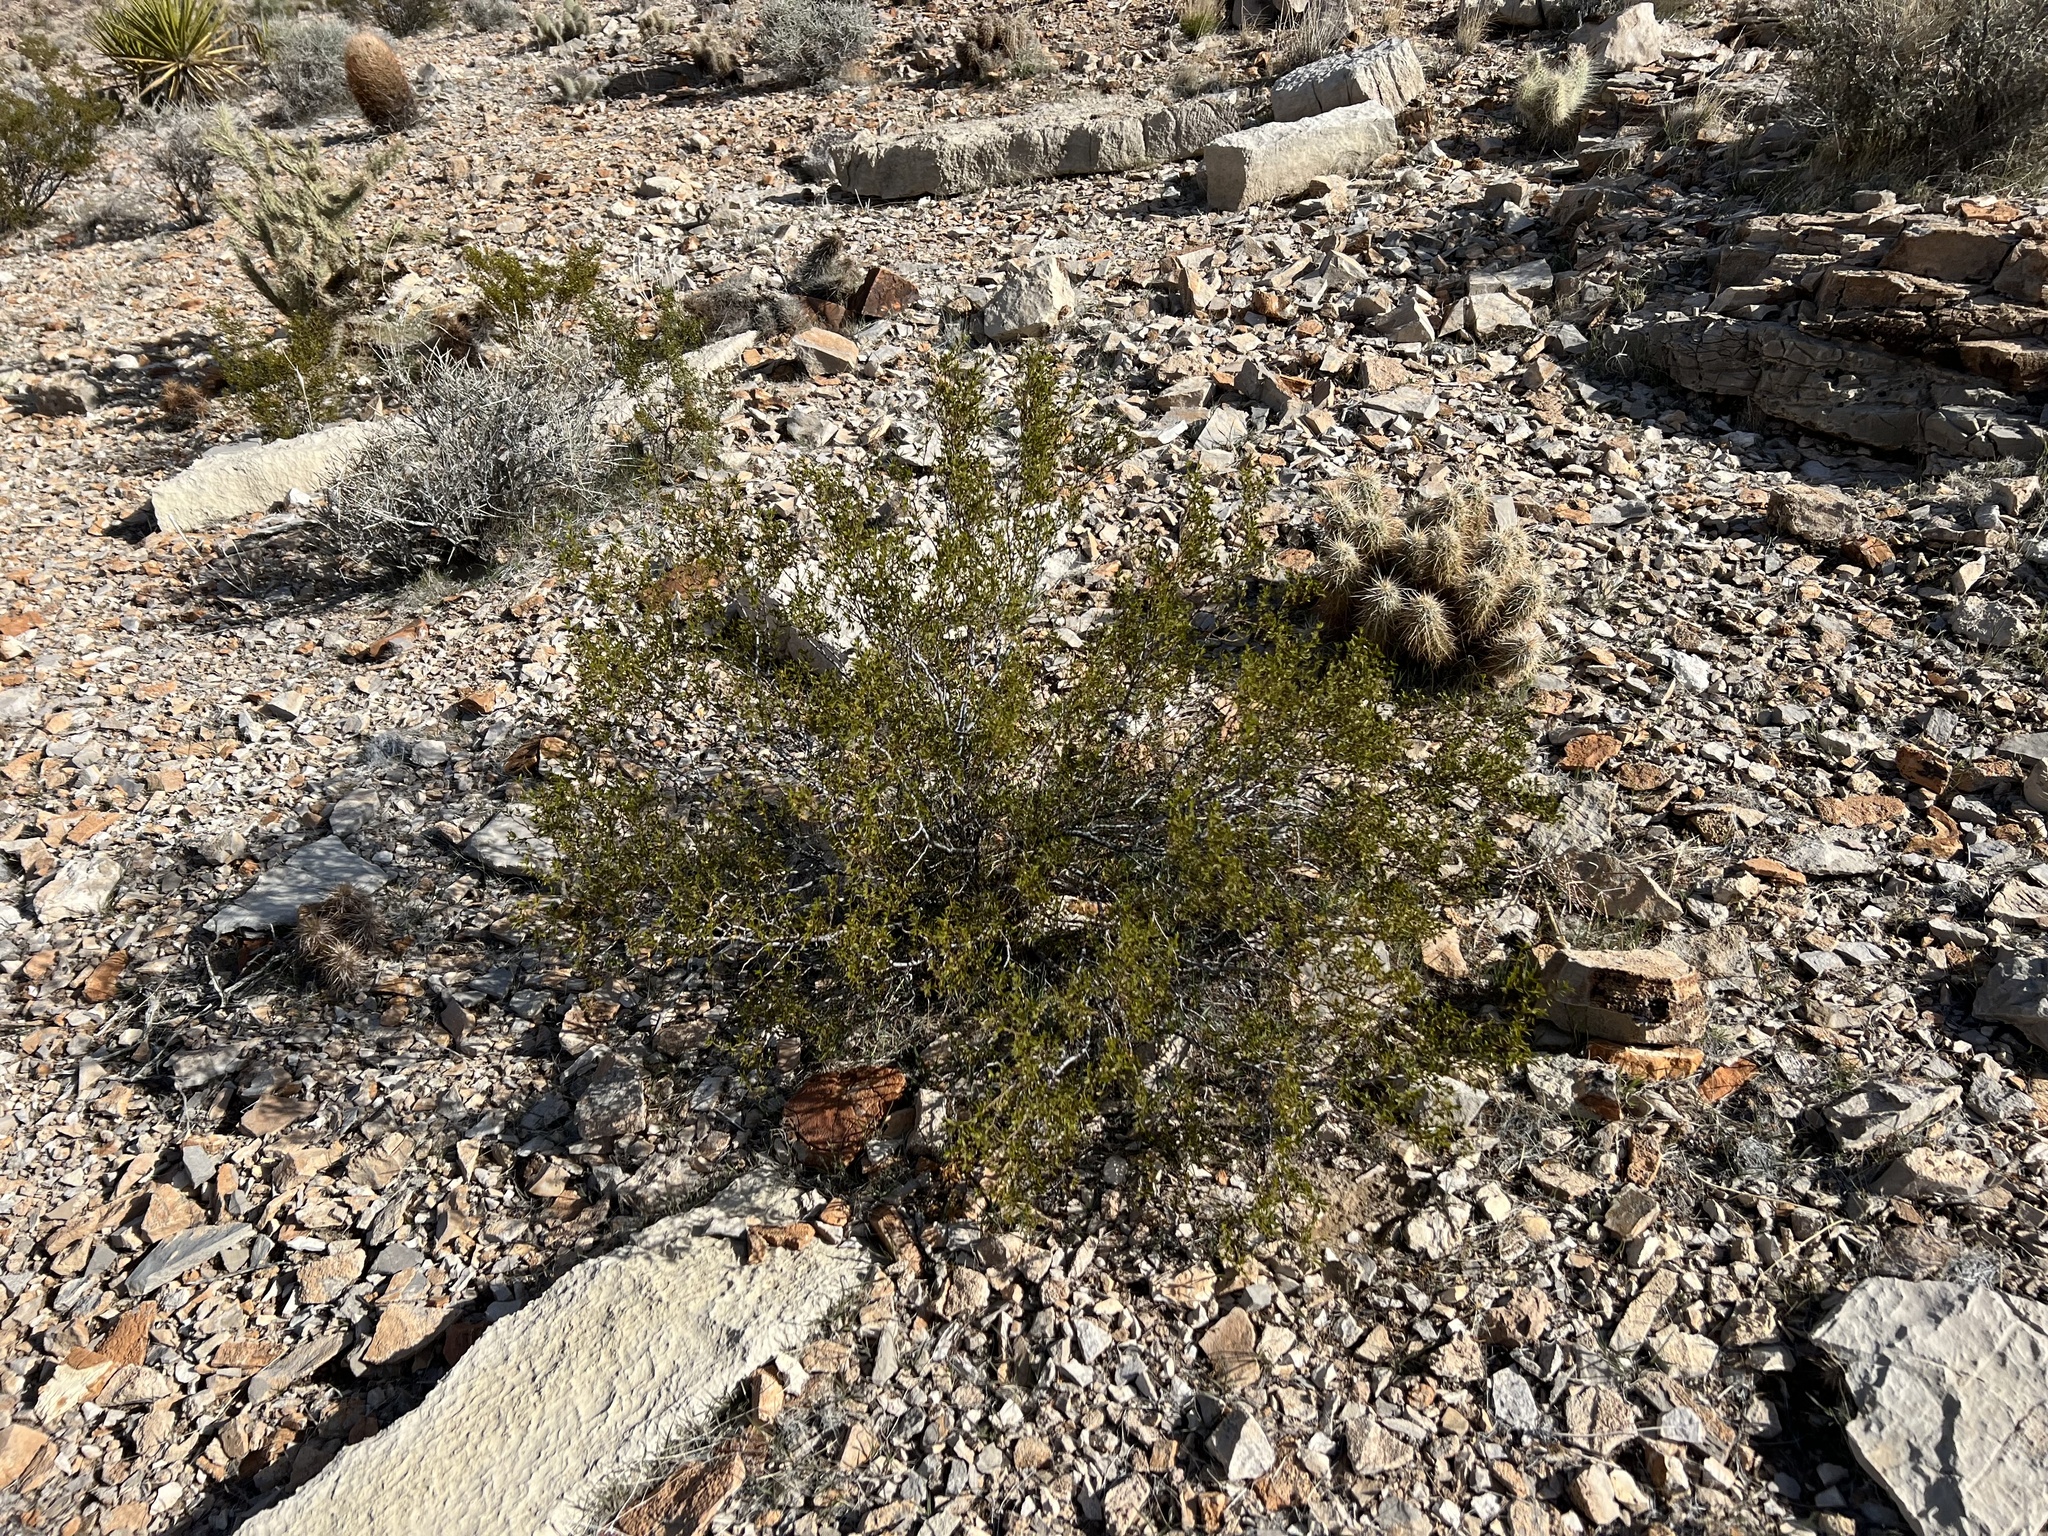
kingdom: Plantae
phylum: Tracheophyta
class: Magnoliopsida
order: Zygophyllales
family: Zygophyllaceae
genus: Larrea
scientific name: Larrea tridentata
